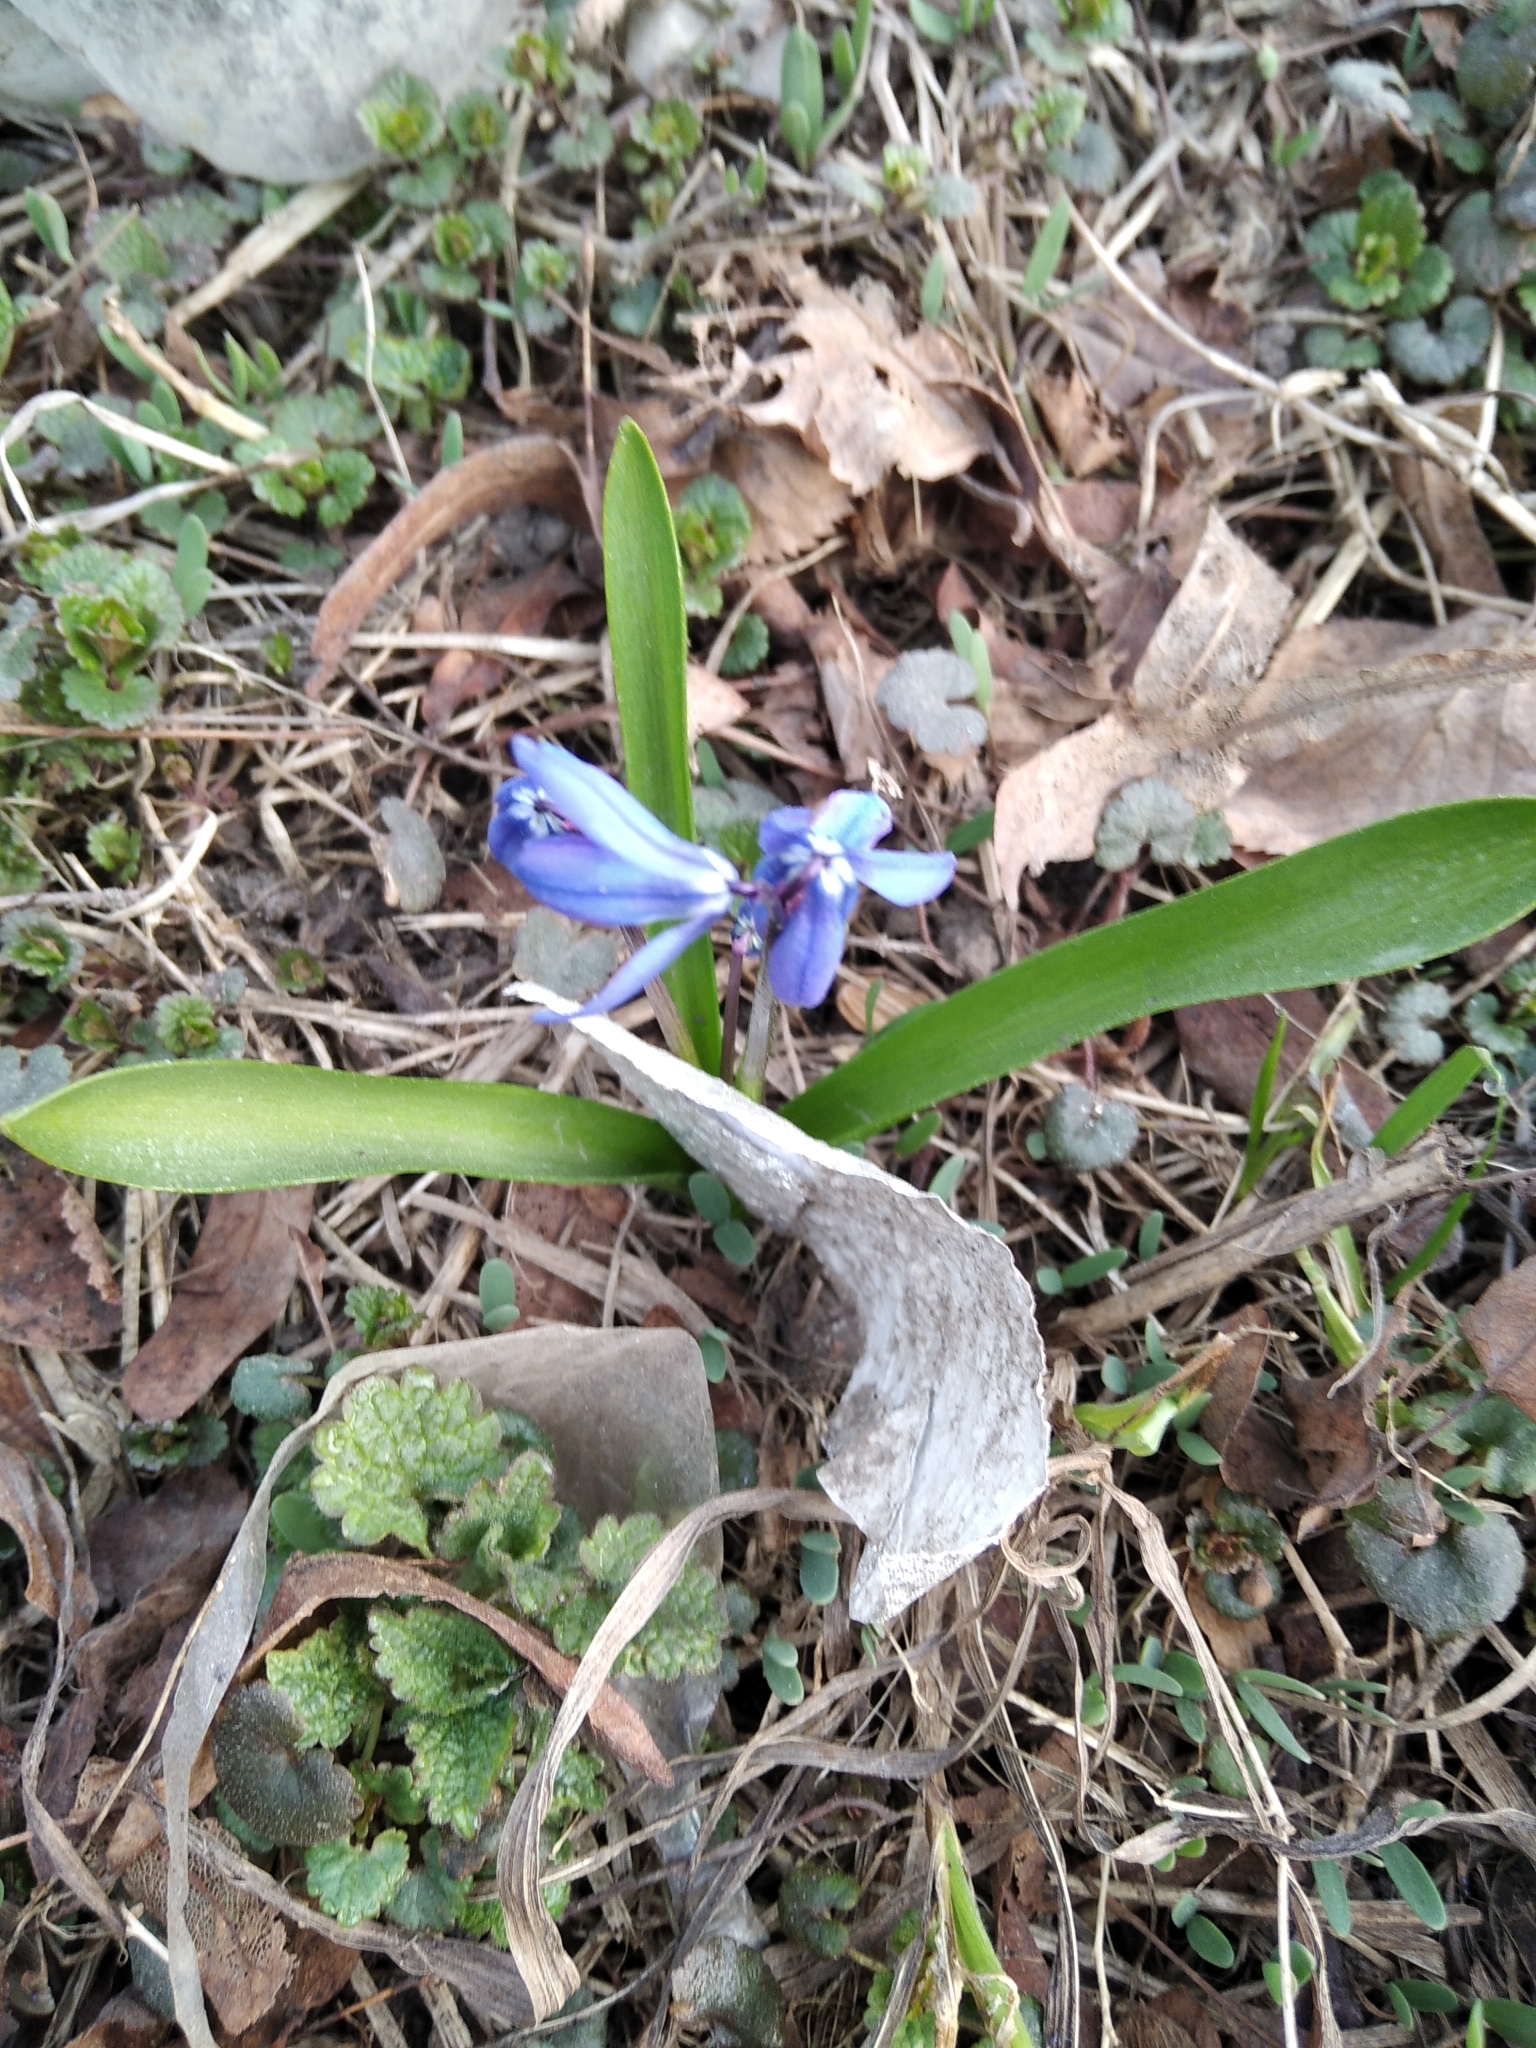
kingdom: Plantae
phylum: Tracheophyta
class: Liliopsida
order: Asparagales
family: Asparagaceae
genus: Scilla
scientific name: Scilla siberica
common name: Siberian squill
